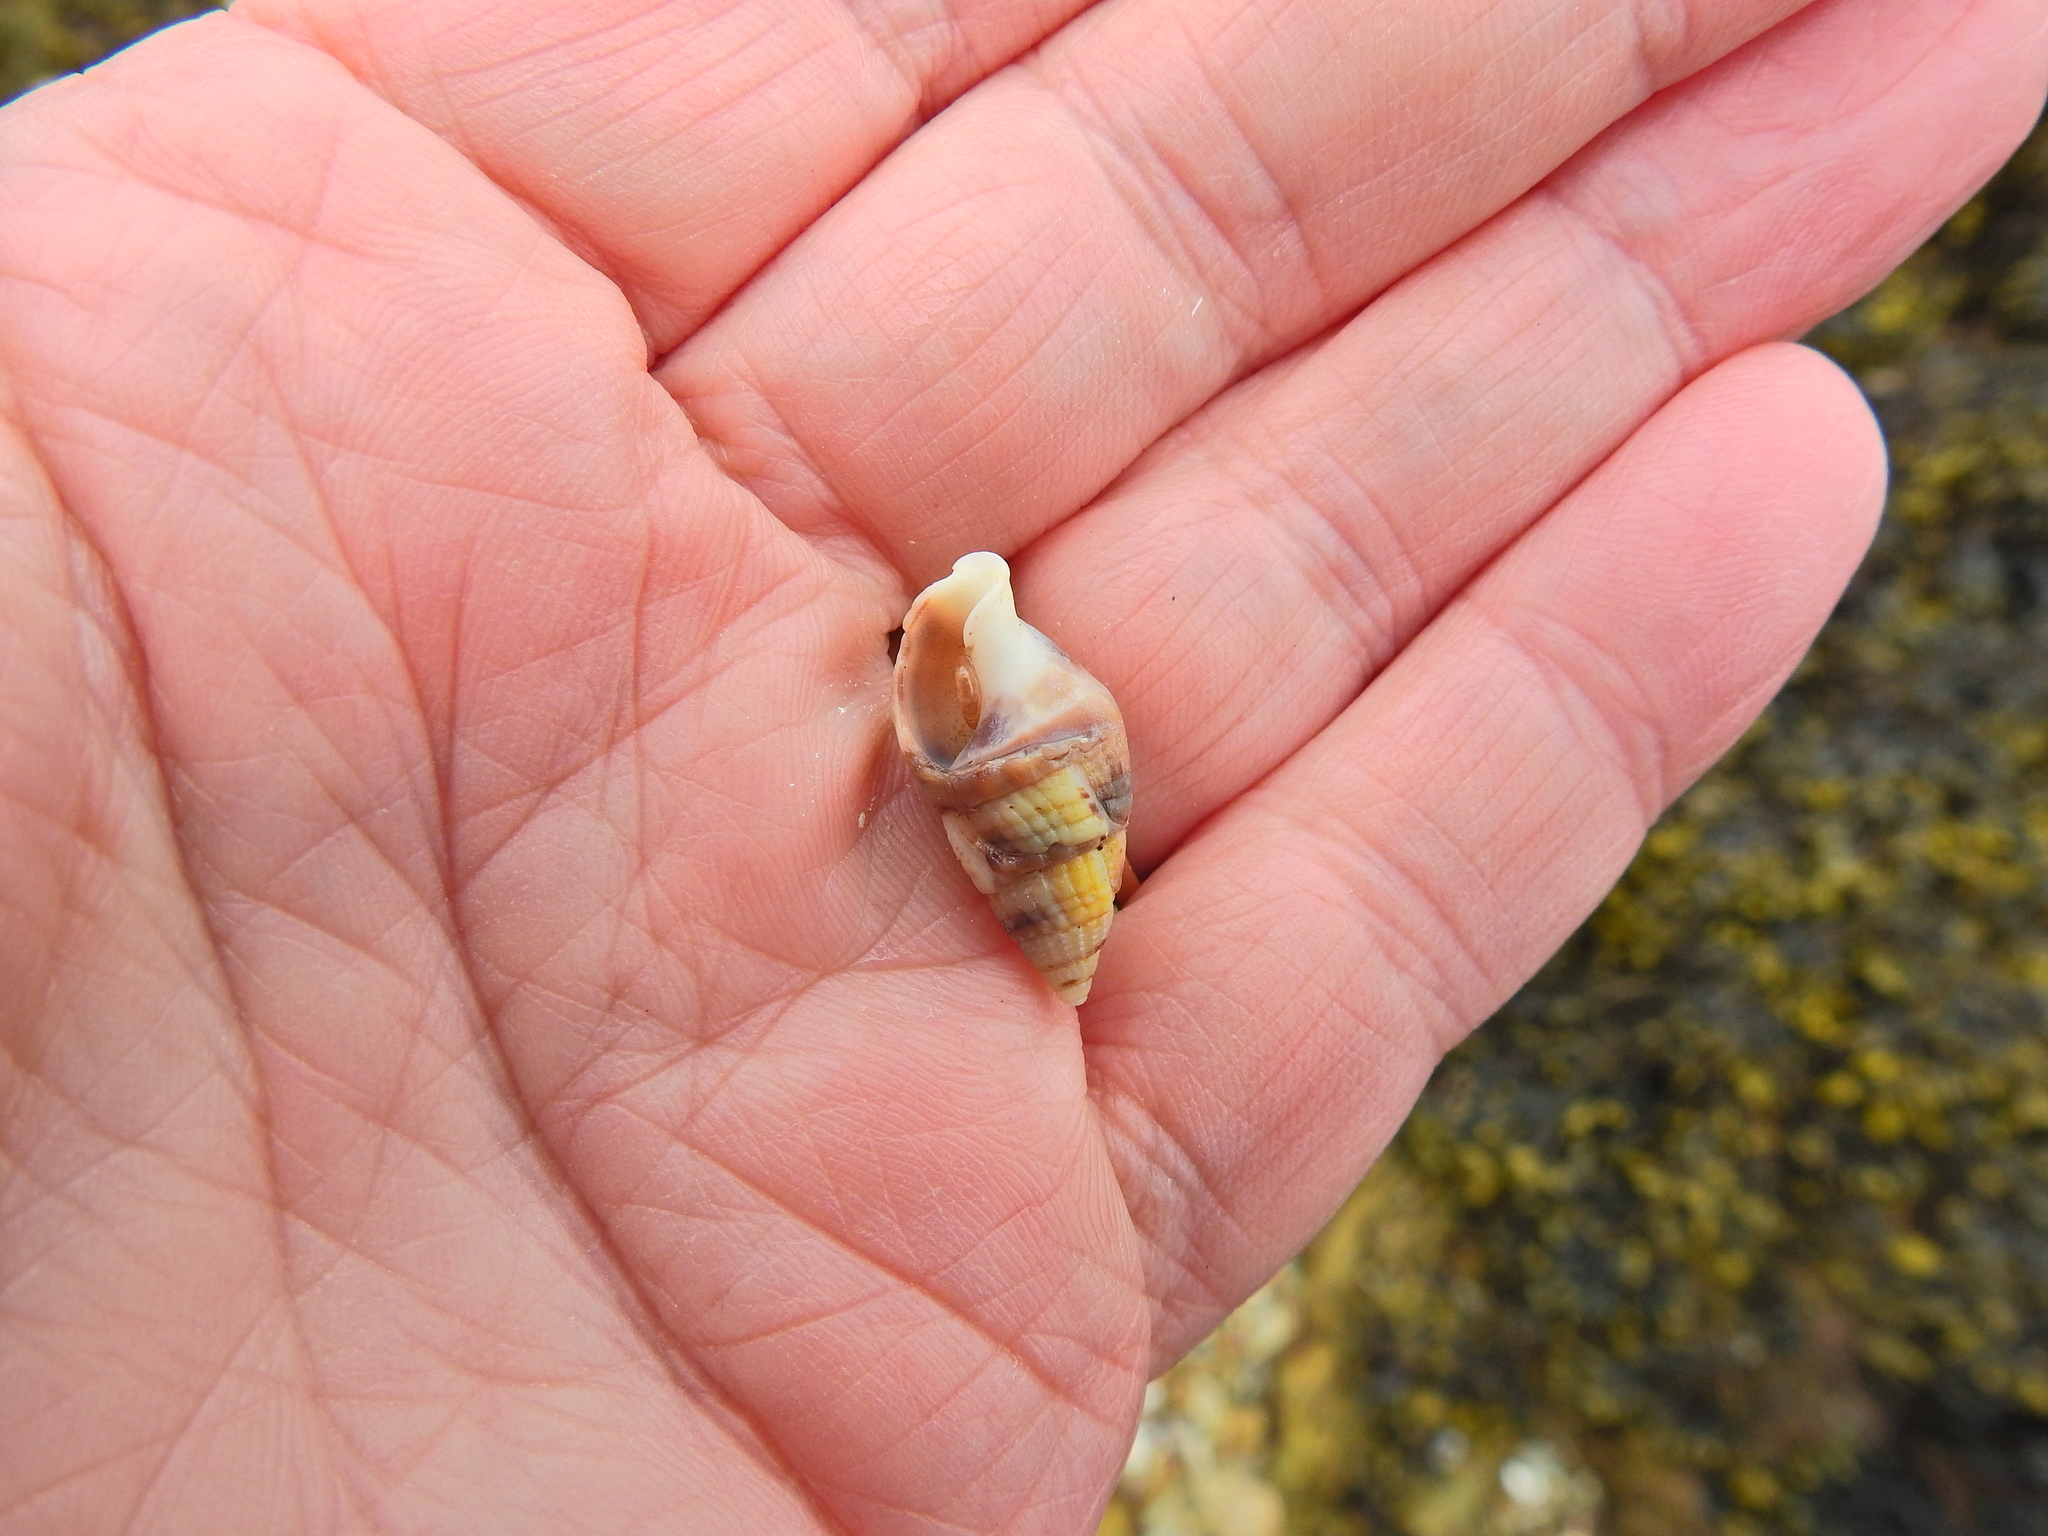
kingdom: Animalia
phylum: Mollusca
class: Gastropoda
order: Neogastropoda
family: Nassariidae
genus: Tritia
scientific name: Tritia reticulata
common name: Netted dog whelk
